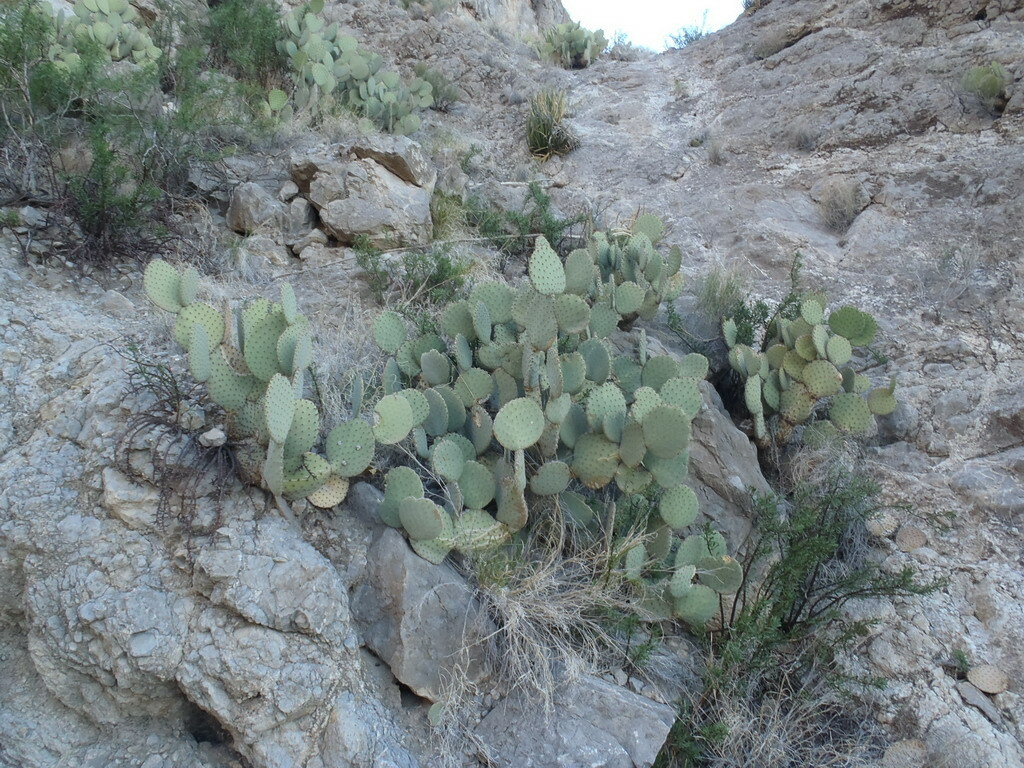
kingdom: Plantae
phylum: Tracheophyta
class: Magnoliopsida
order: Caryophyllales
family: Cactaceae
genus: Opuntia
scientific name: Opuntia rufida
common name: Blind pricklypear
